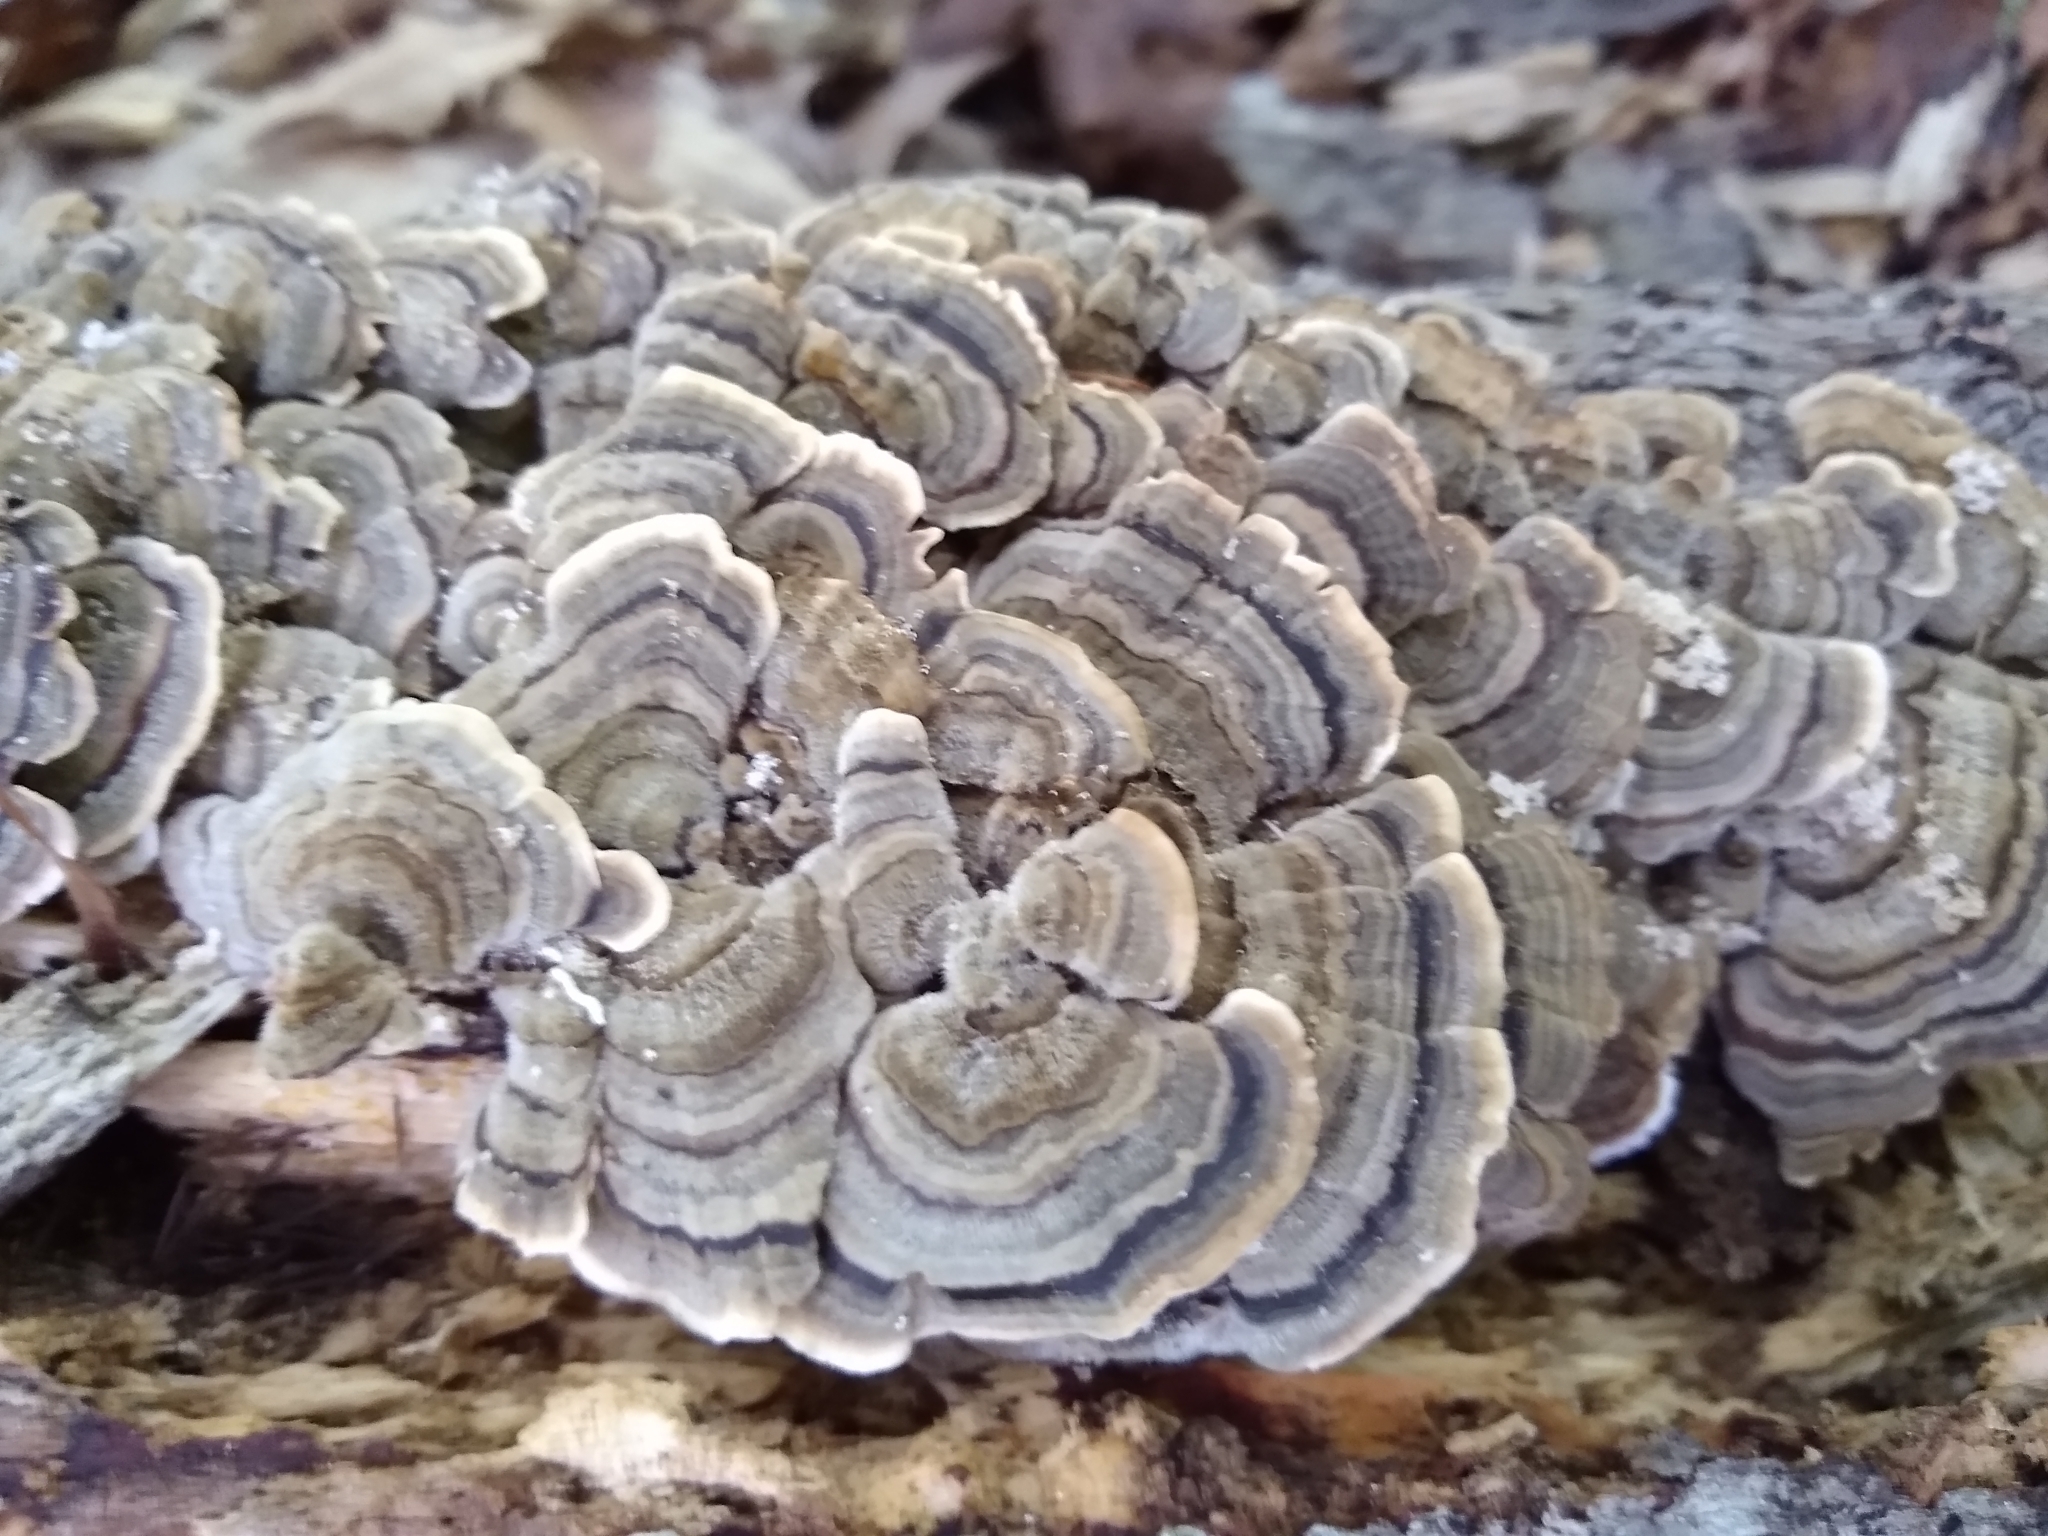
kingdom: Fungi
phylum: Basidiomycota
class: Agaricomycetes
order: Polyporales
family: Polyporaceae
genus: Trametes
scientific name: Trametes versicolor
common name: Turkeytail
